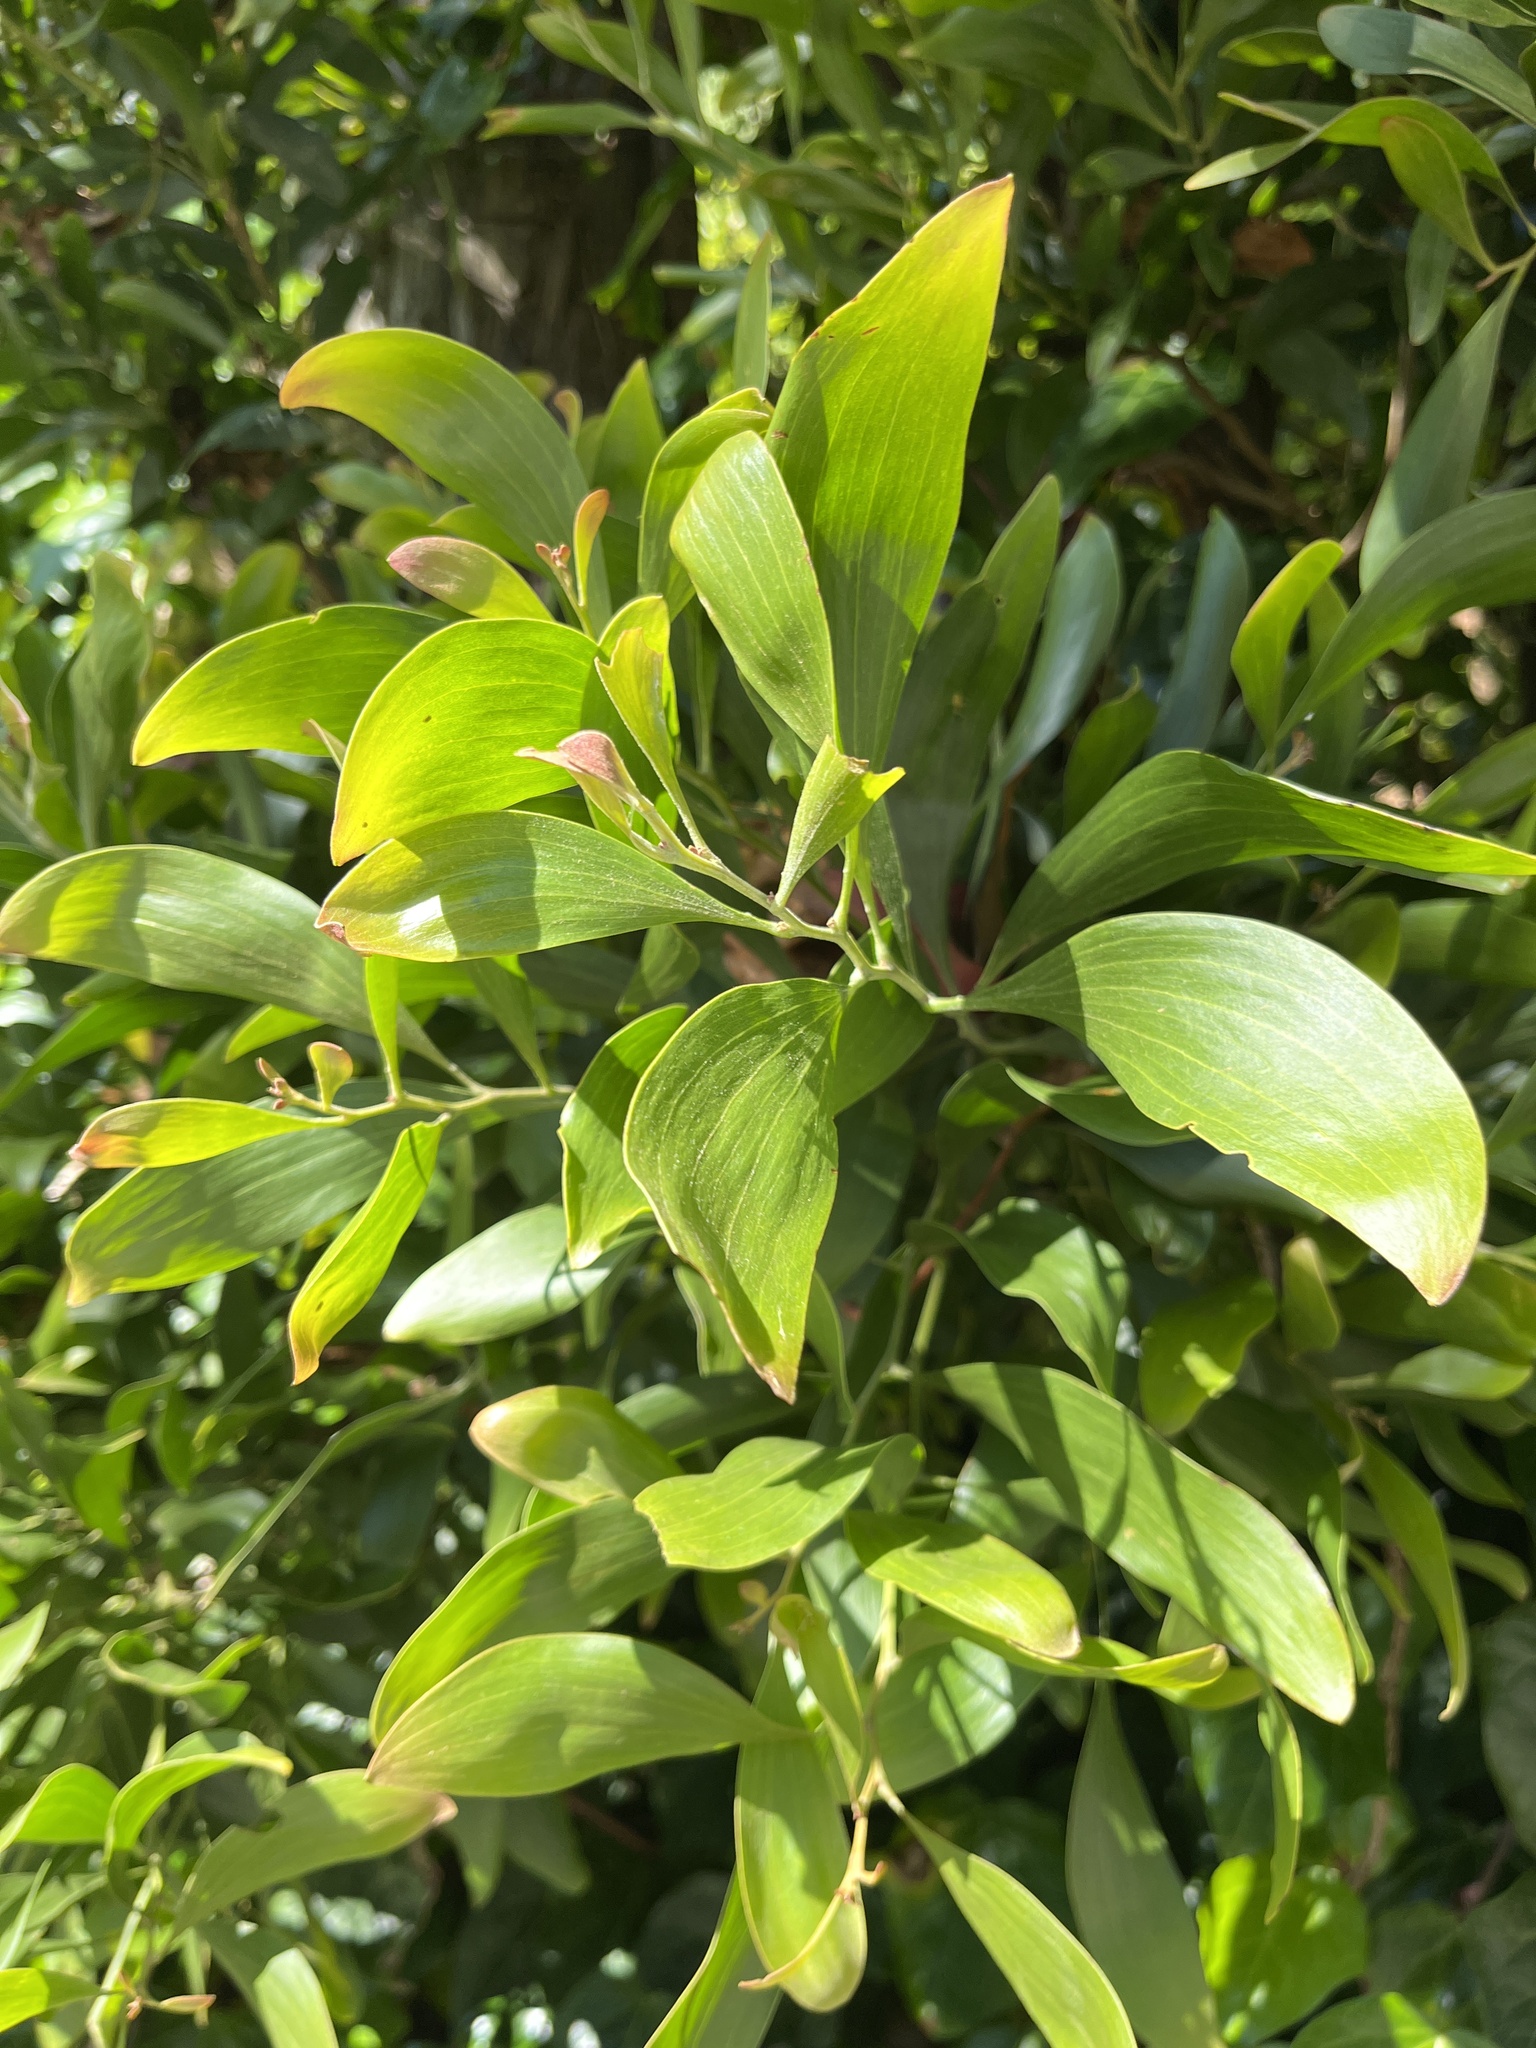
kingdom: Plantae
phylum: Tracheophyta
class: Magnoliopsida
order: Fabales
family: Fabaceae
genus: Acacia
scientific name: Acacia melanoxylon
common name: Blackwood
